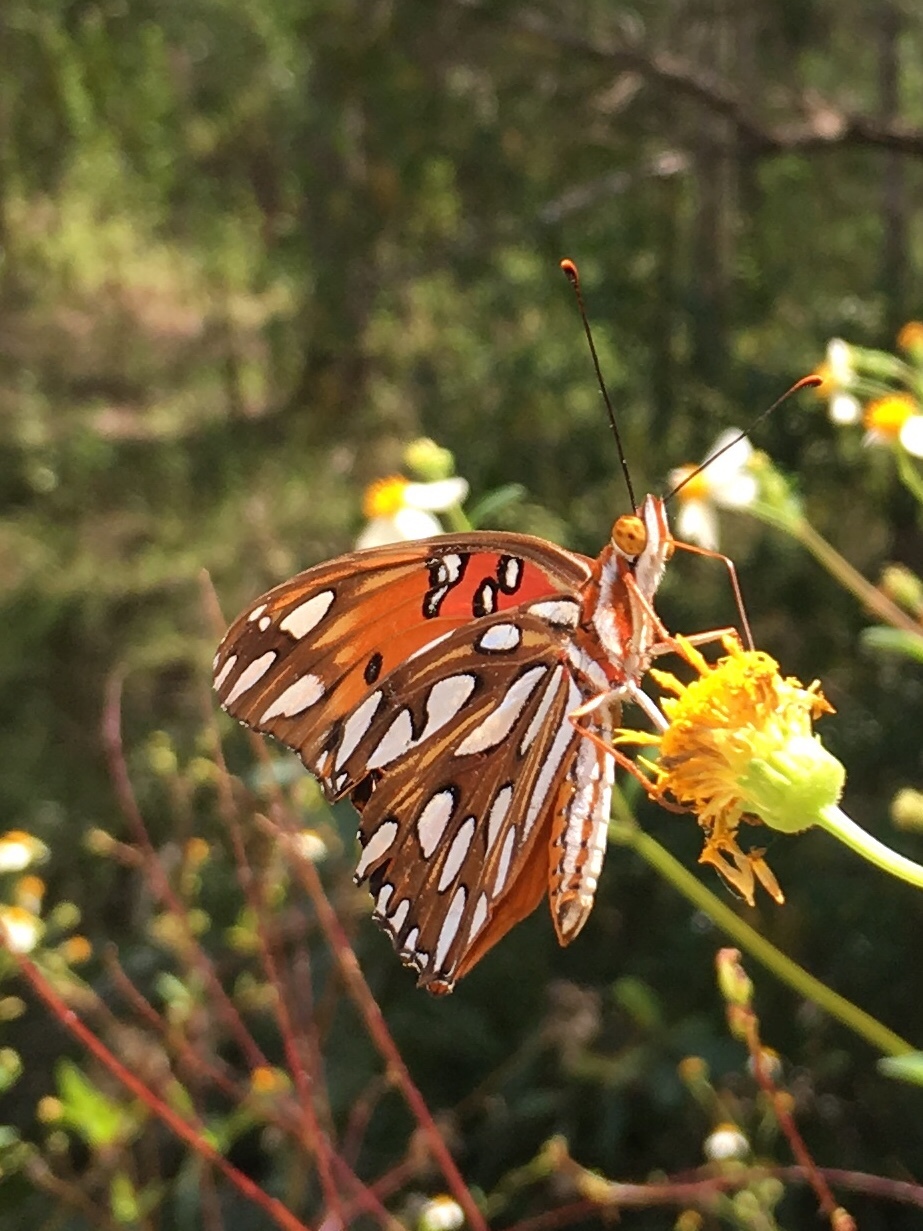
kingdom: Animalia
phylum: Arthropoda
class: Insecta
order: Lepidoptera
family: Nymphalidae
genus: Dione
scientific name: Dione vanillae
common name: Gulf fritillary
